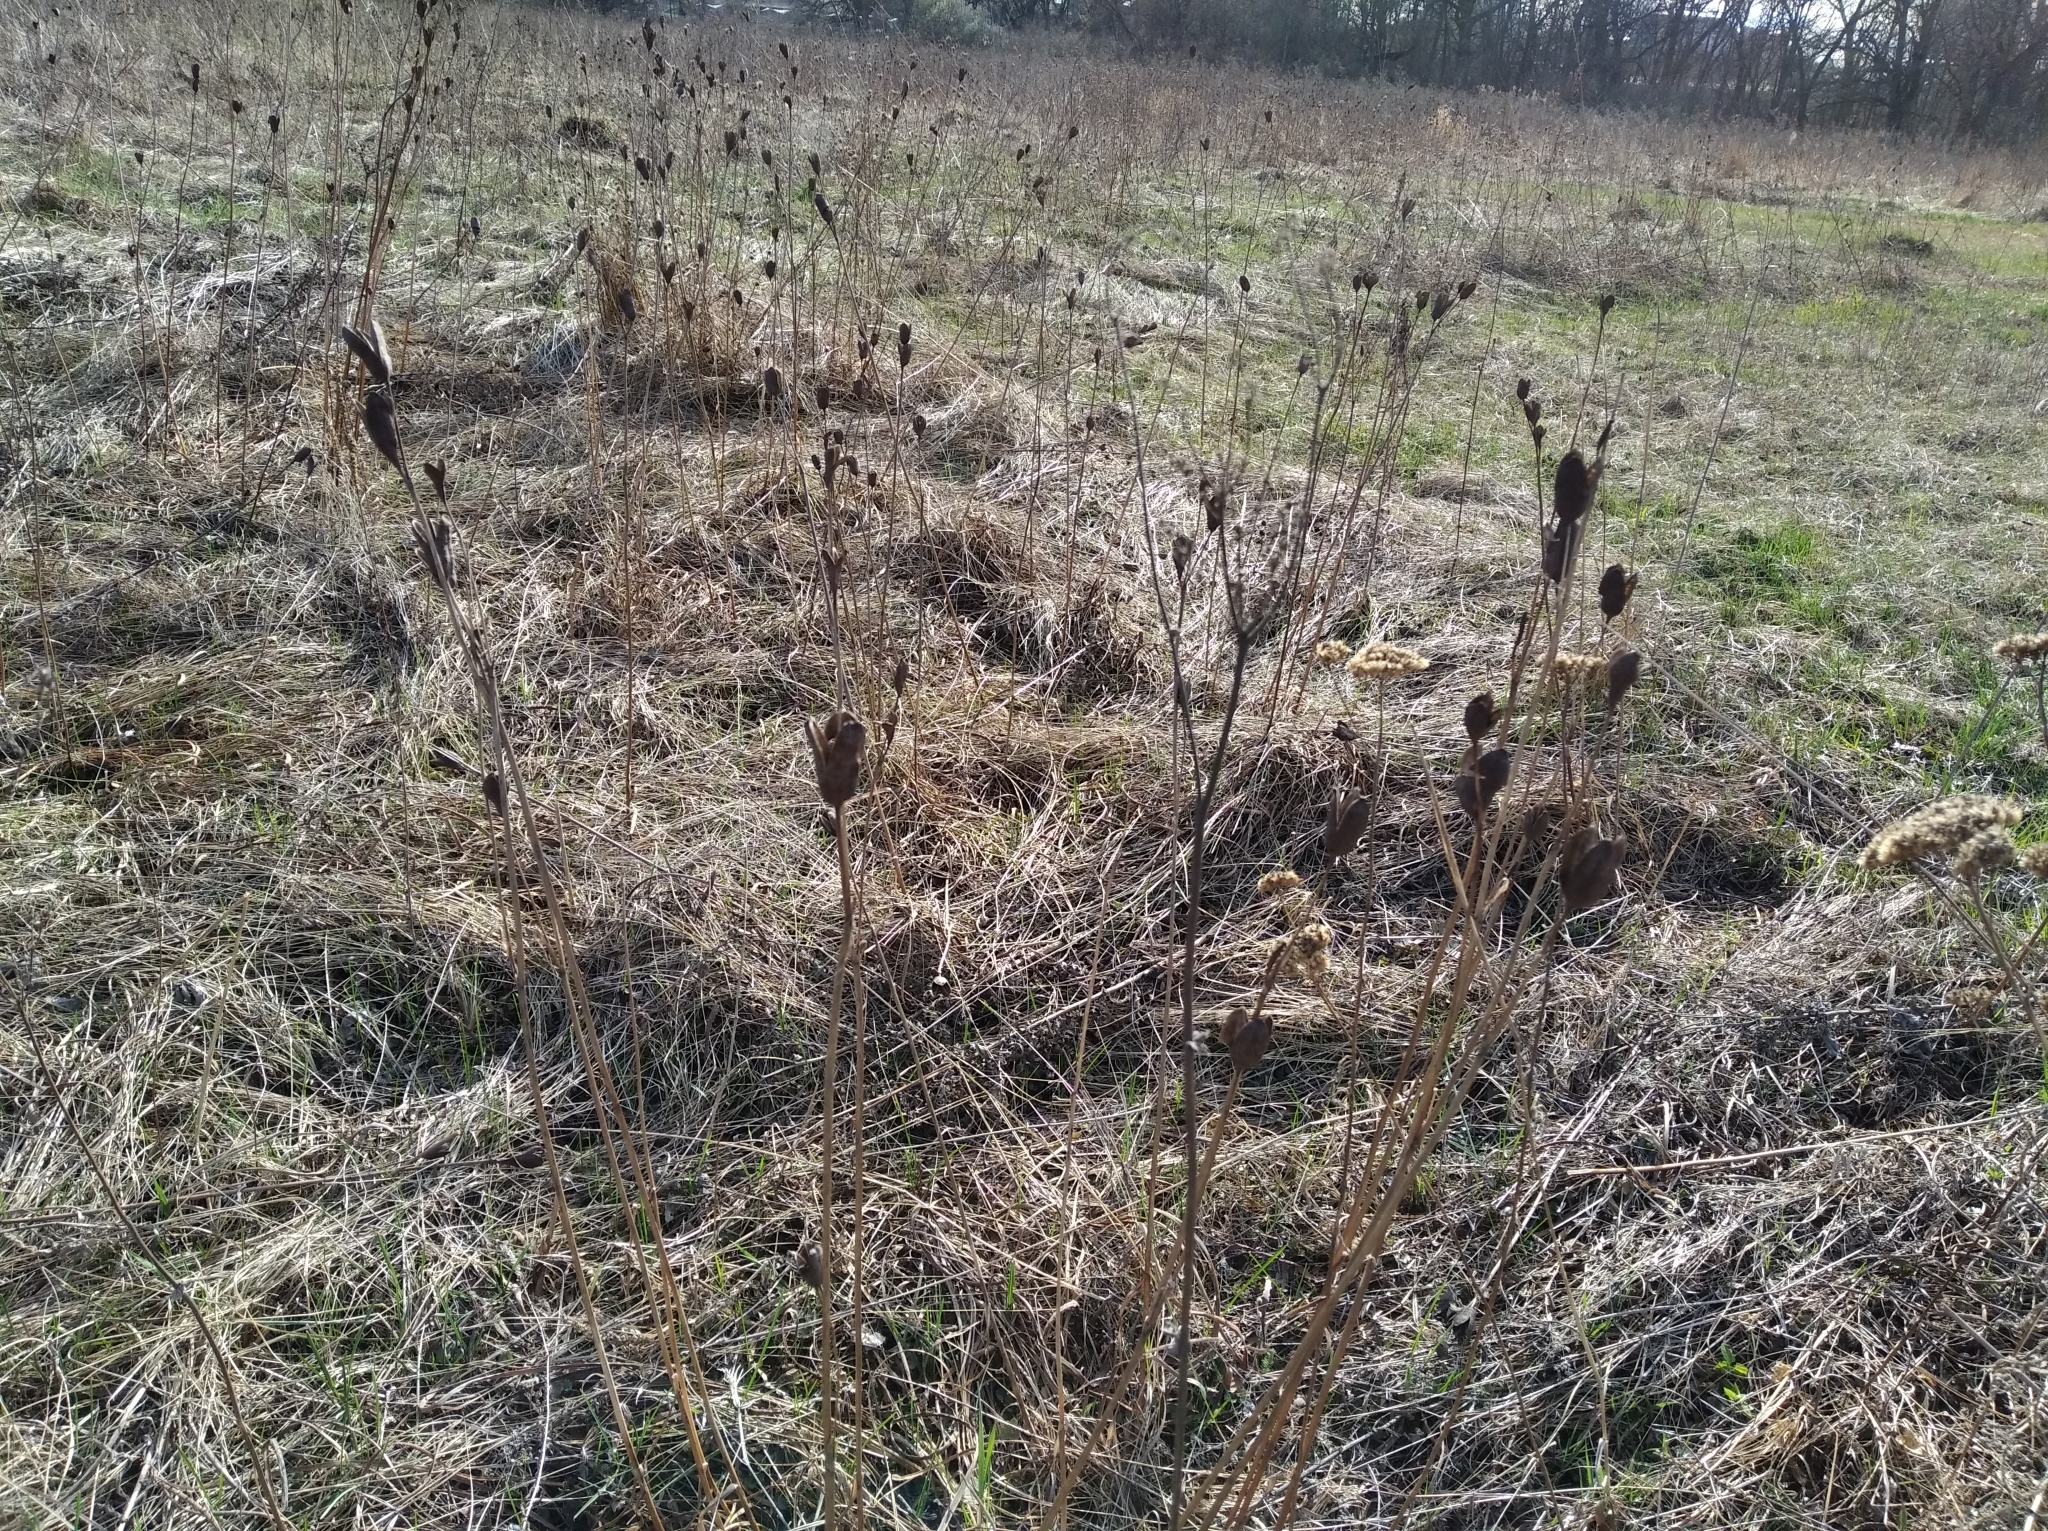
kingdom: Plantae
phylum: Tracheophyta
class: Liliopsida
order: Asparagales
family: Iridaceae
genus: Iris
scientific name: Iris sibirica
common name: Siberian iris
